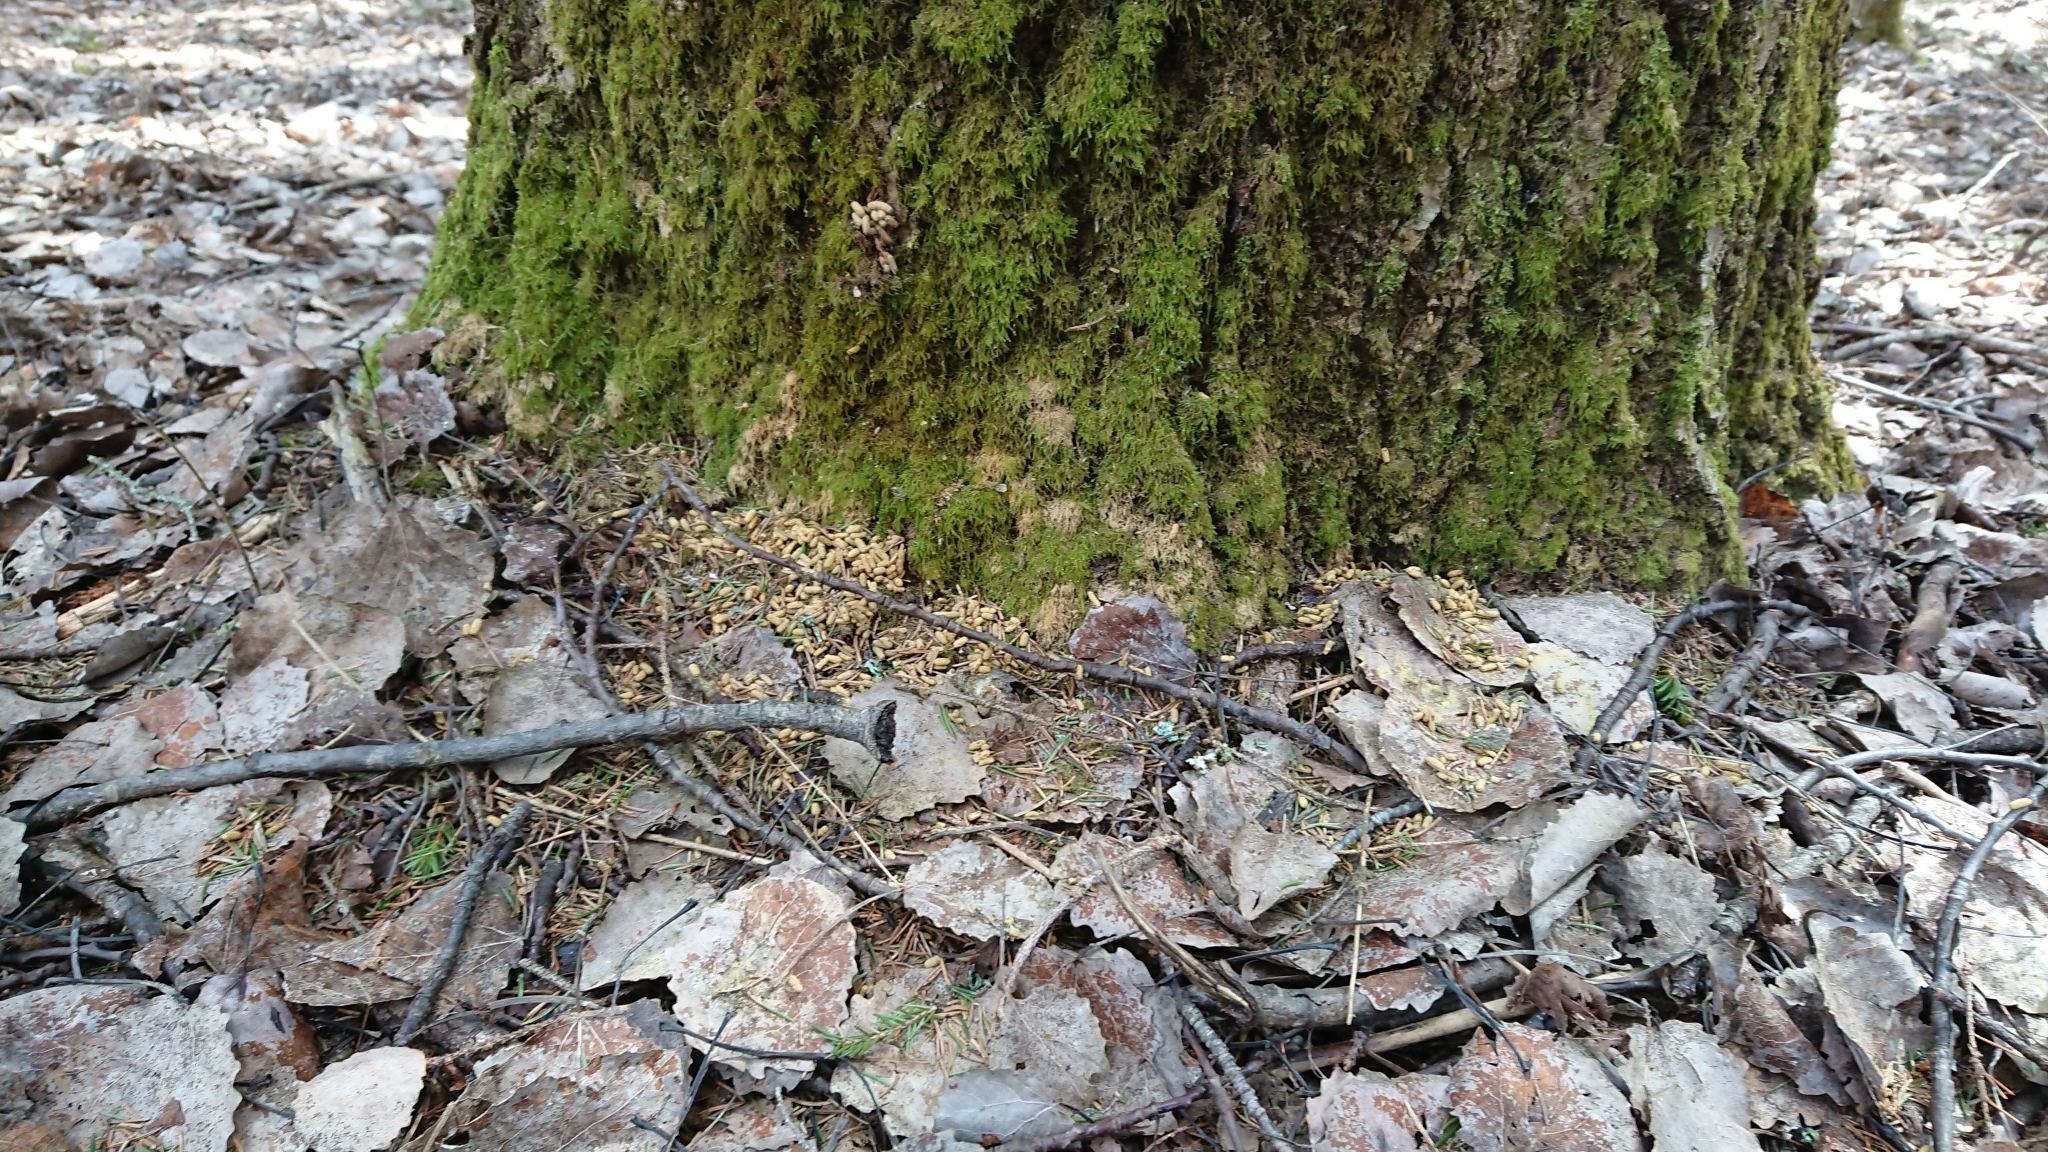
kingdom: Animalia
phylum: Chordata
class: Mammalia
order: Rodentia
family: Sciuridae
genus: Pteromys
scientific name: Pteromys volans
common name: Siberian flying squirrel
